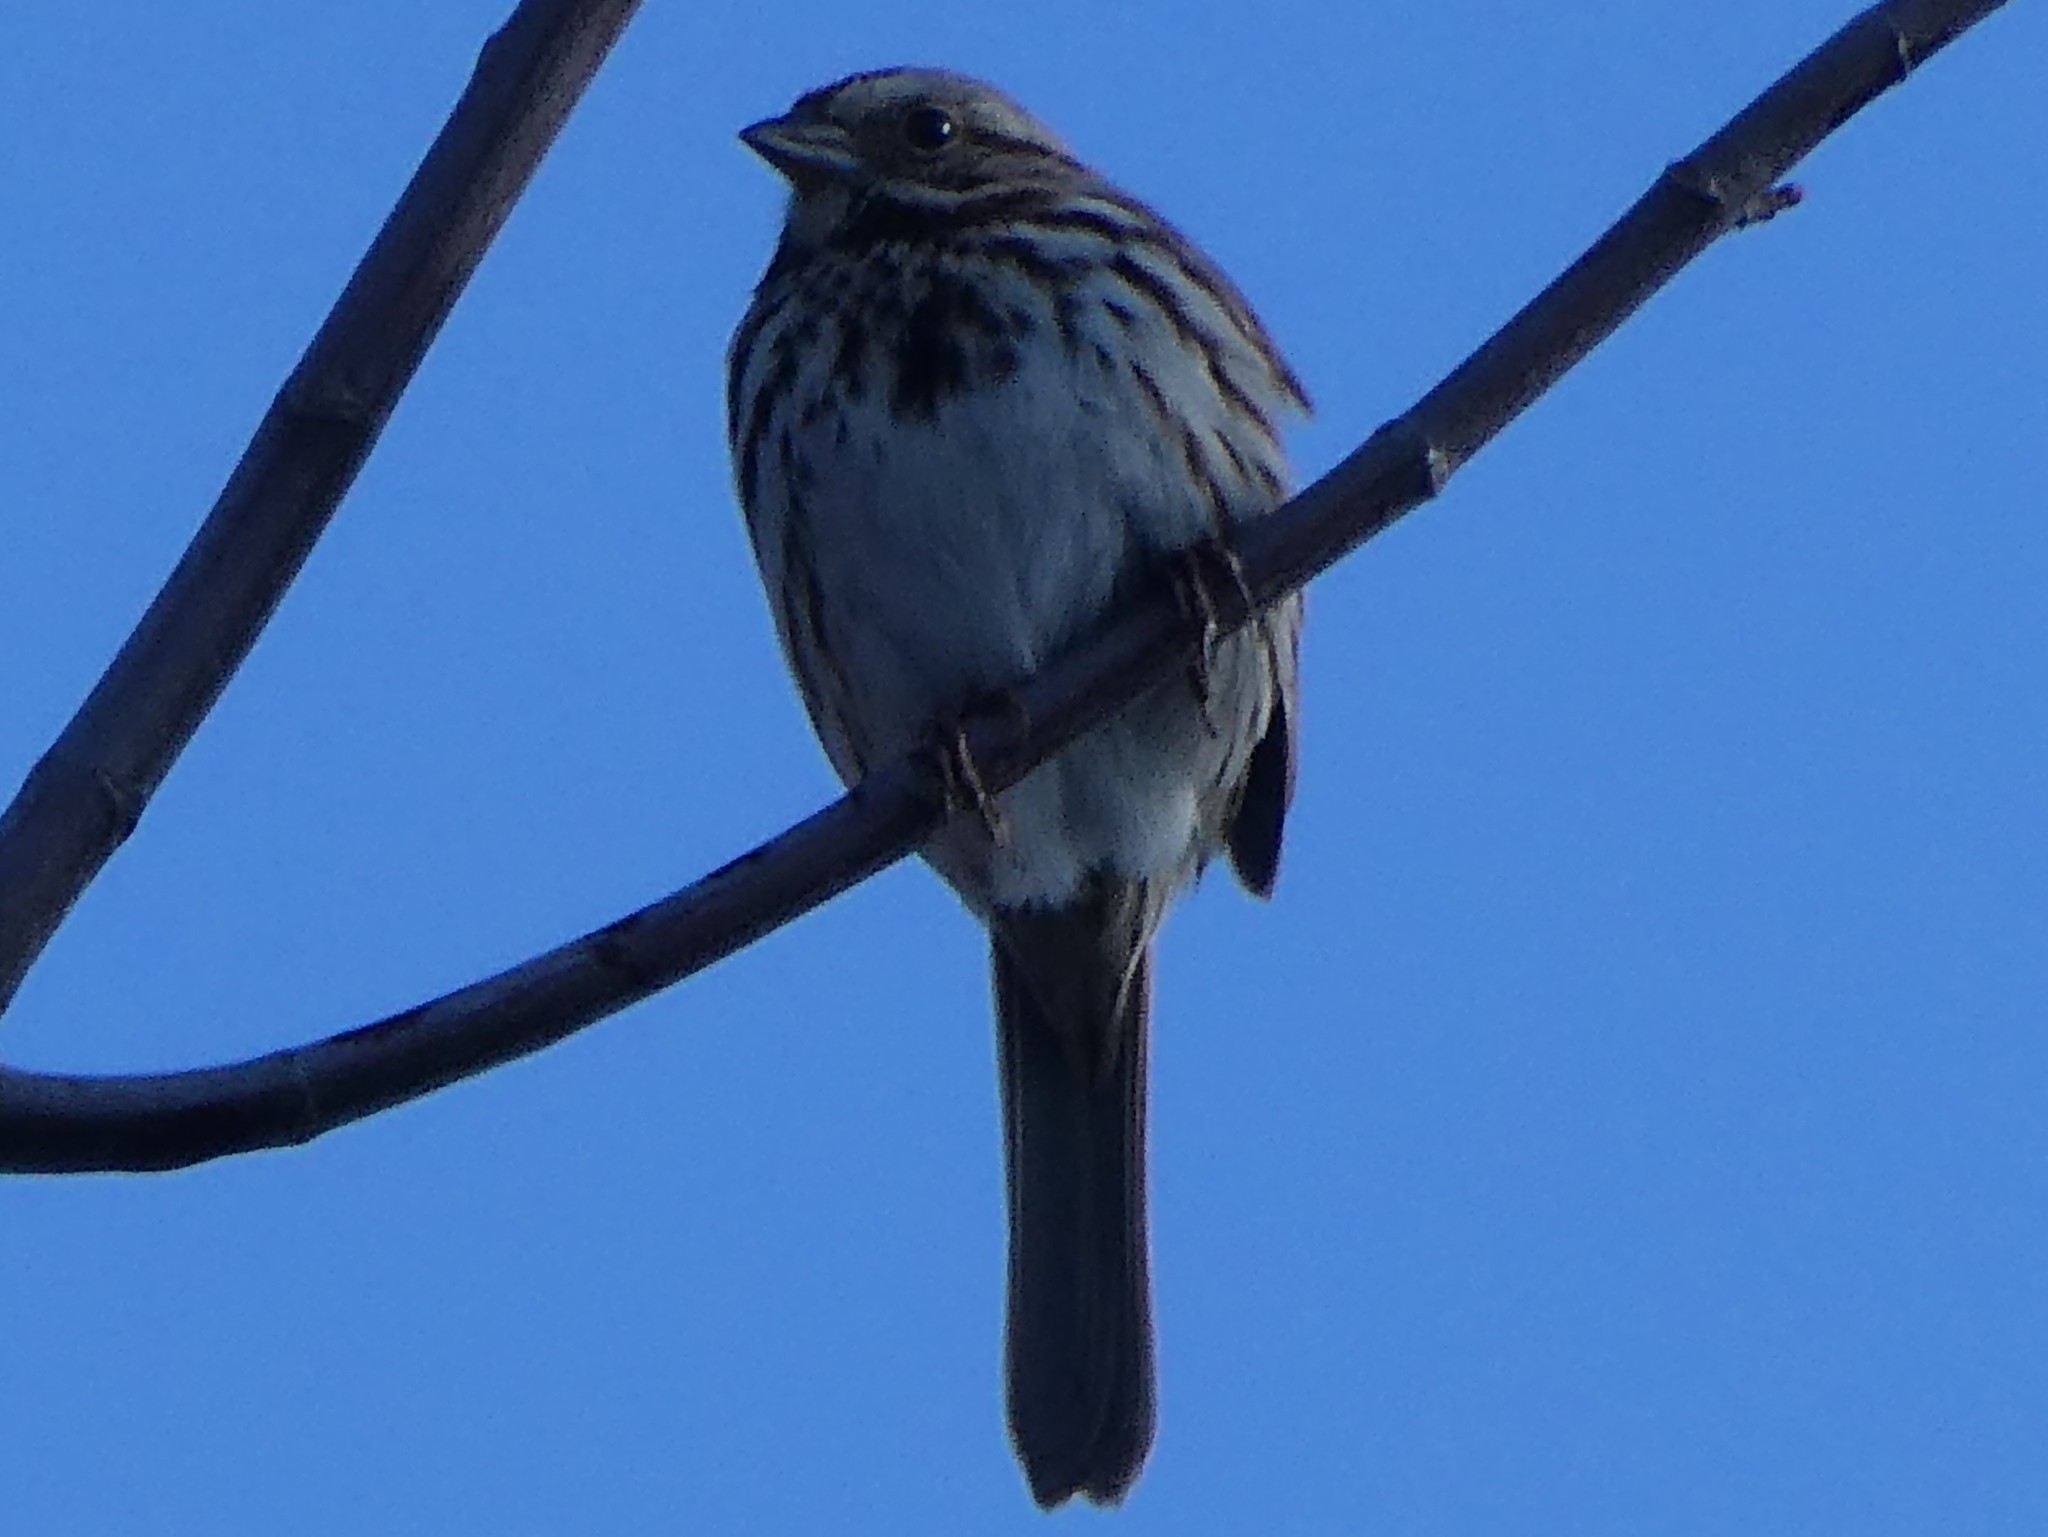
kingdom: Animalia
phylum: Chordata
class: Aves
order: Passeriformes
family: Passerellidae
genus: Melospiza
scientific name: Melospiza melodia
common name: Song sparrow
